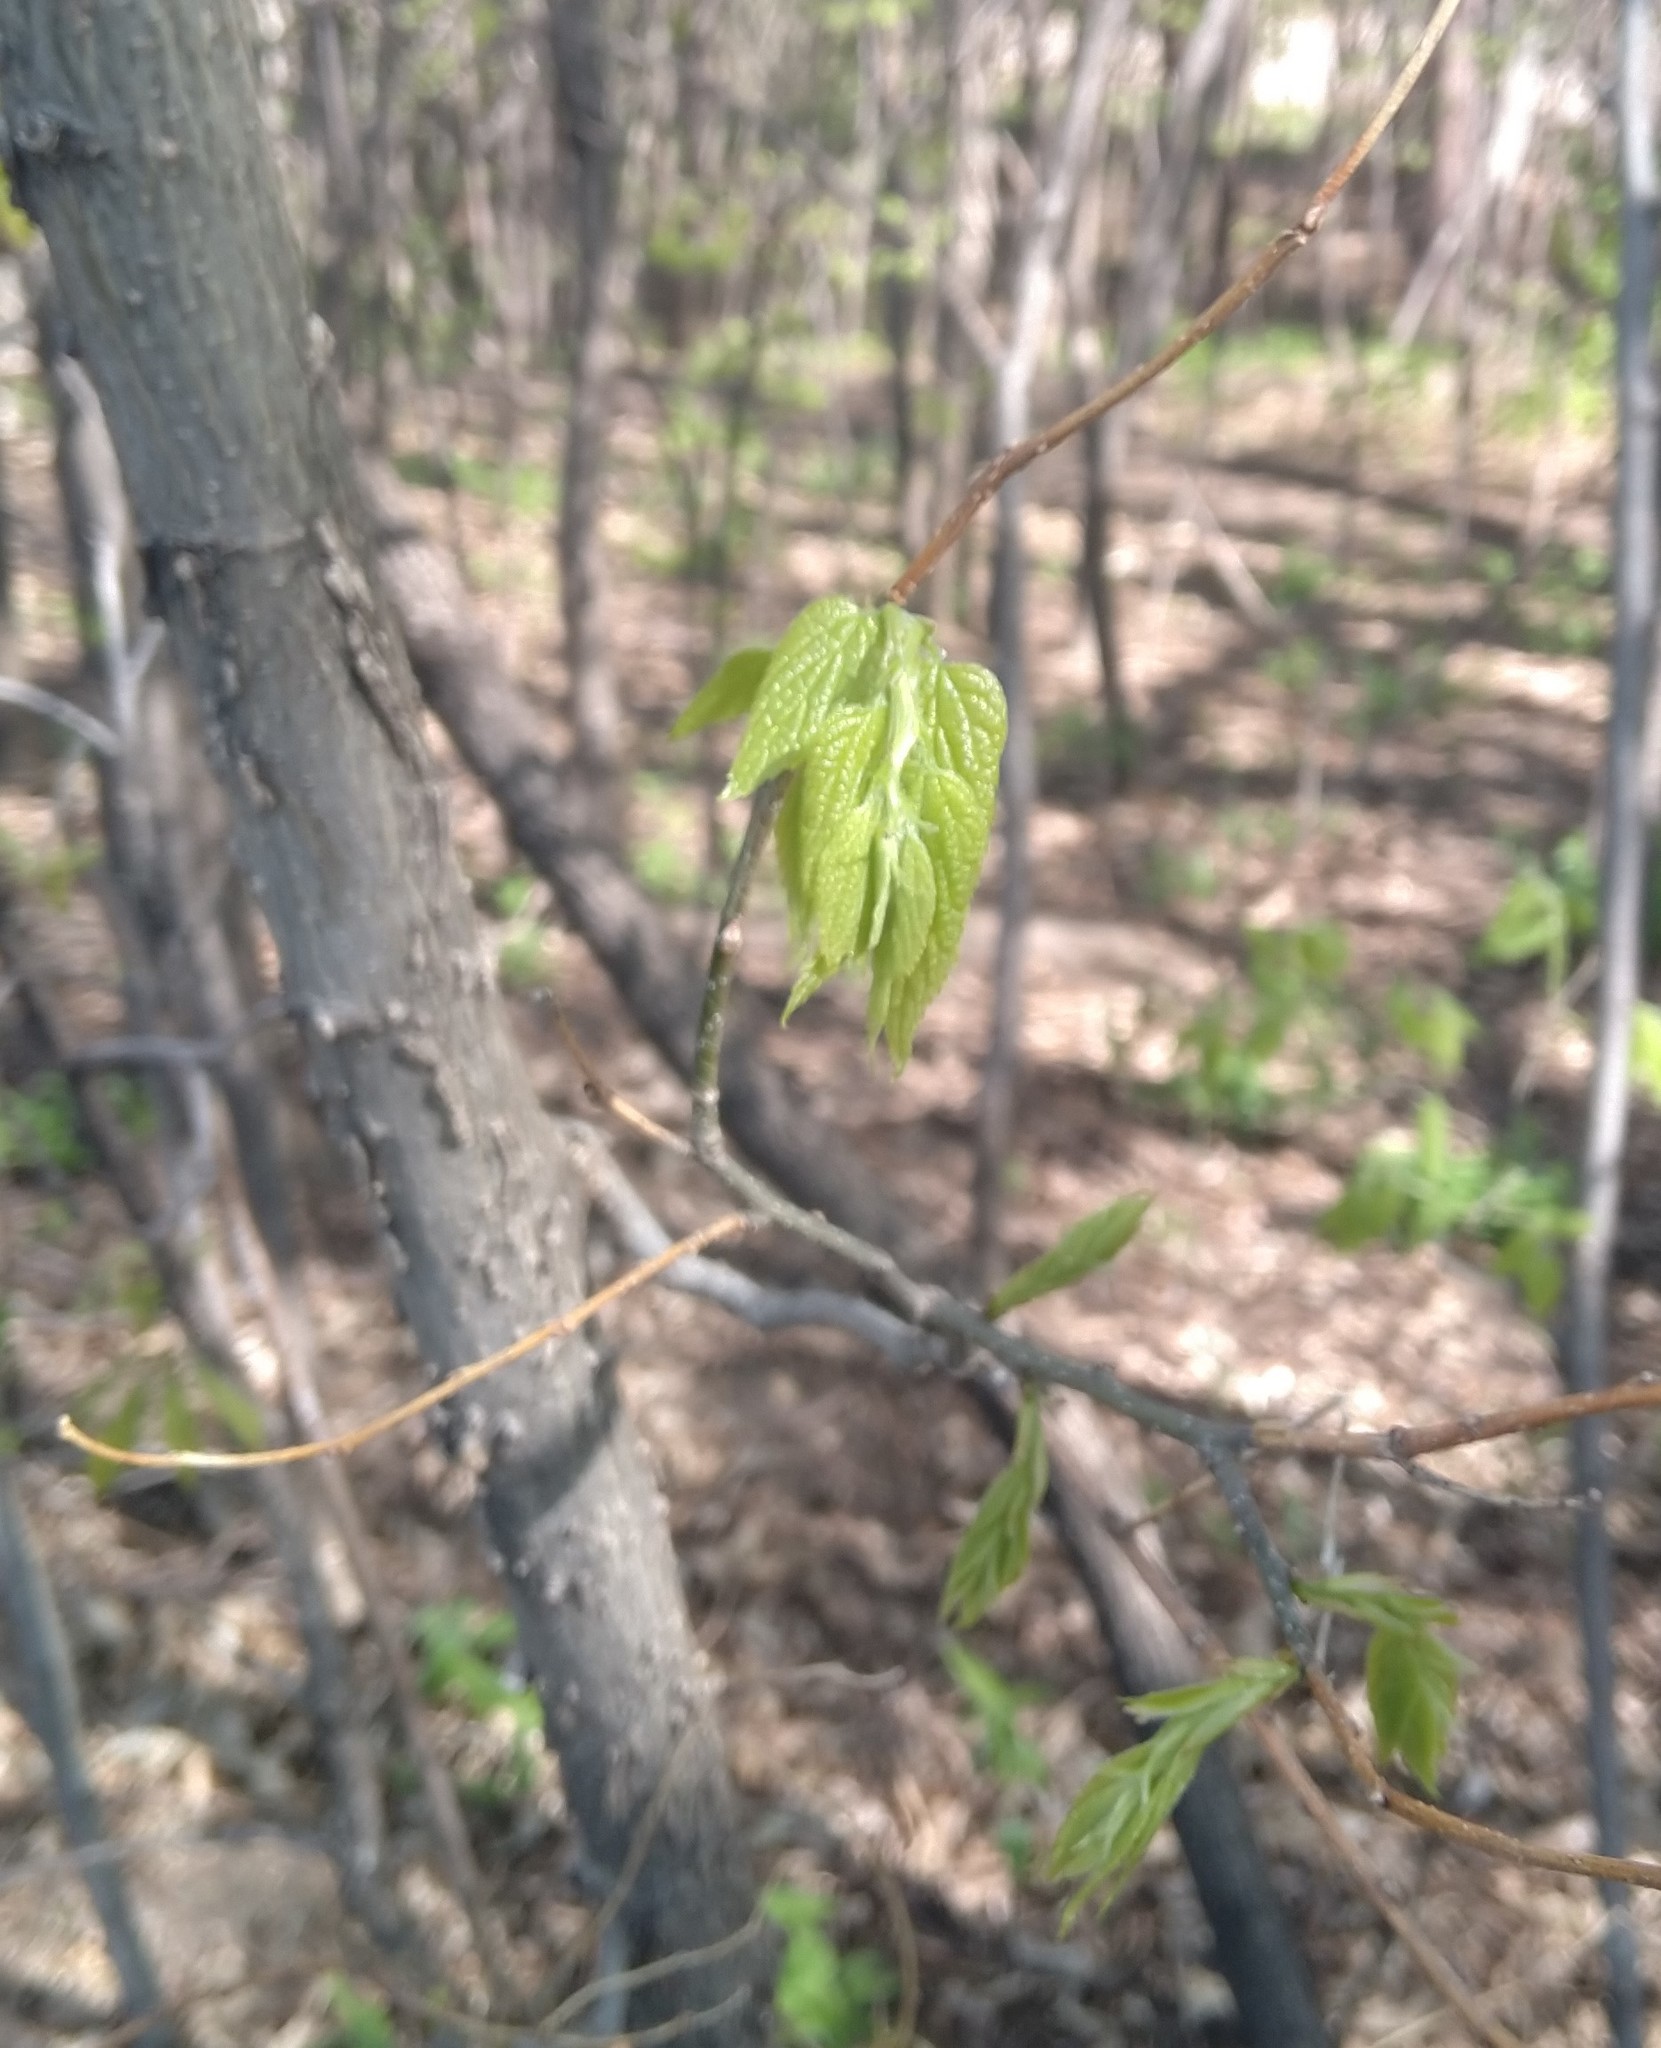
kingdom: Fungi
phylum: Ascomycota
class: Leotiomycetes
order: Helotiales
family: Erysiphaceae
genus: Podosphaera
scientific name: Podosphaera phytoptophila
